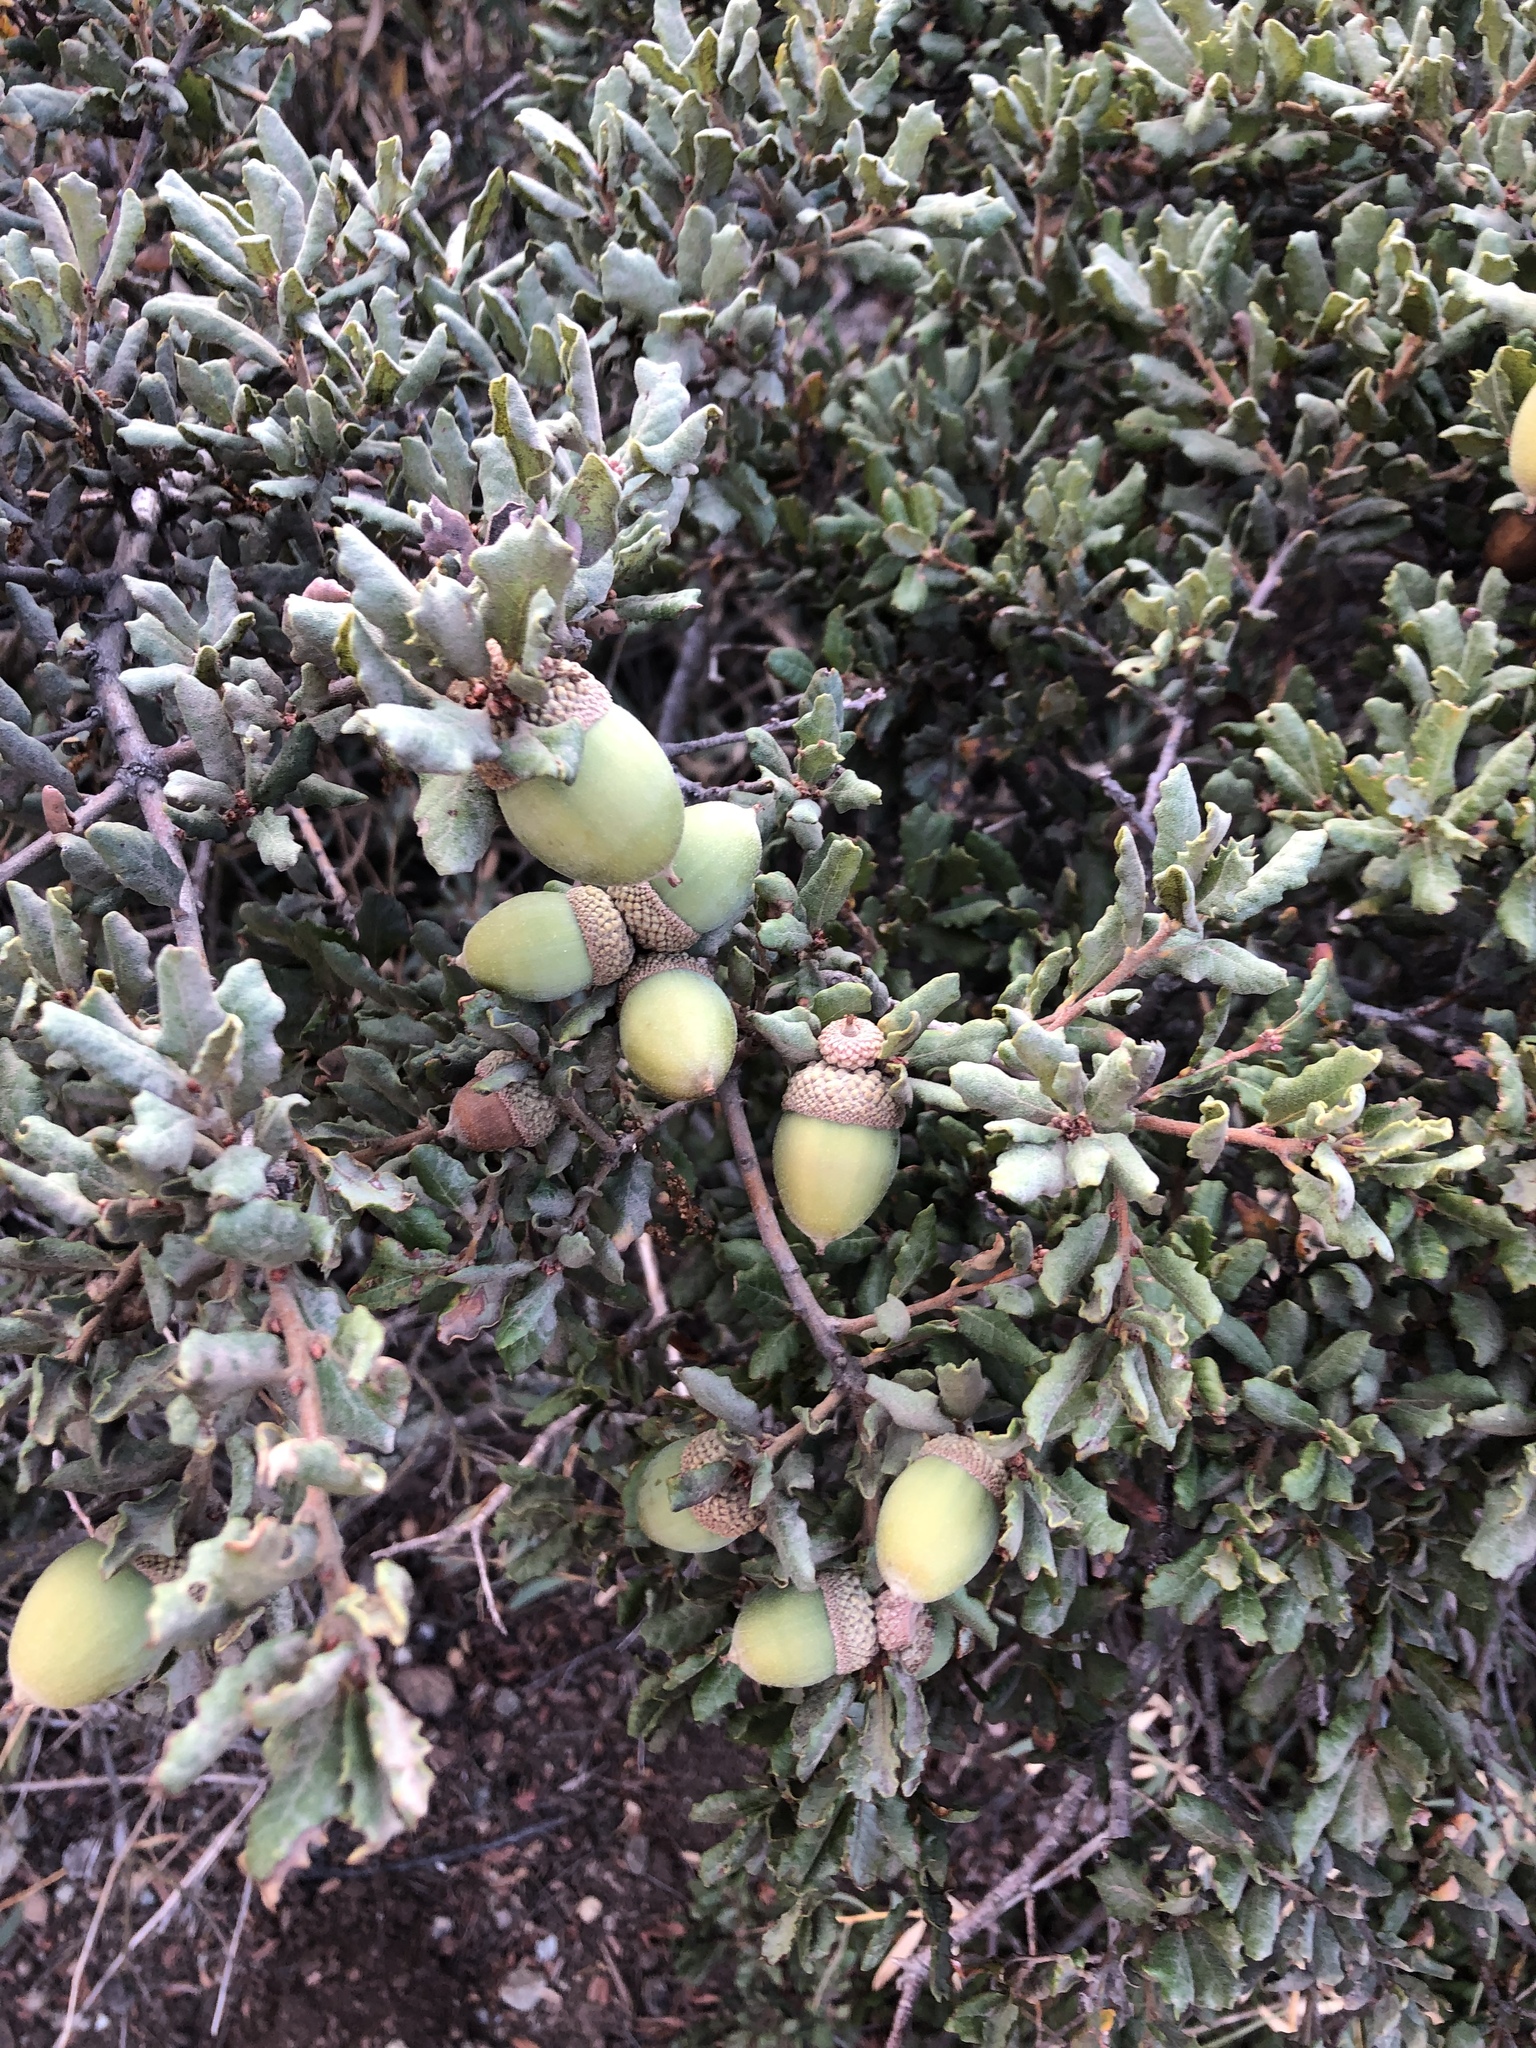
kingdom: Plantae
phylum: Tracheophyta
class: Magnoliopsida
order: Fagales
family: Fagaceae
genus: Quercus
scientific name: Quercus durata
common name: Leather oak
